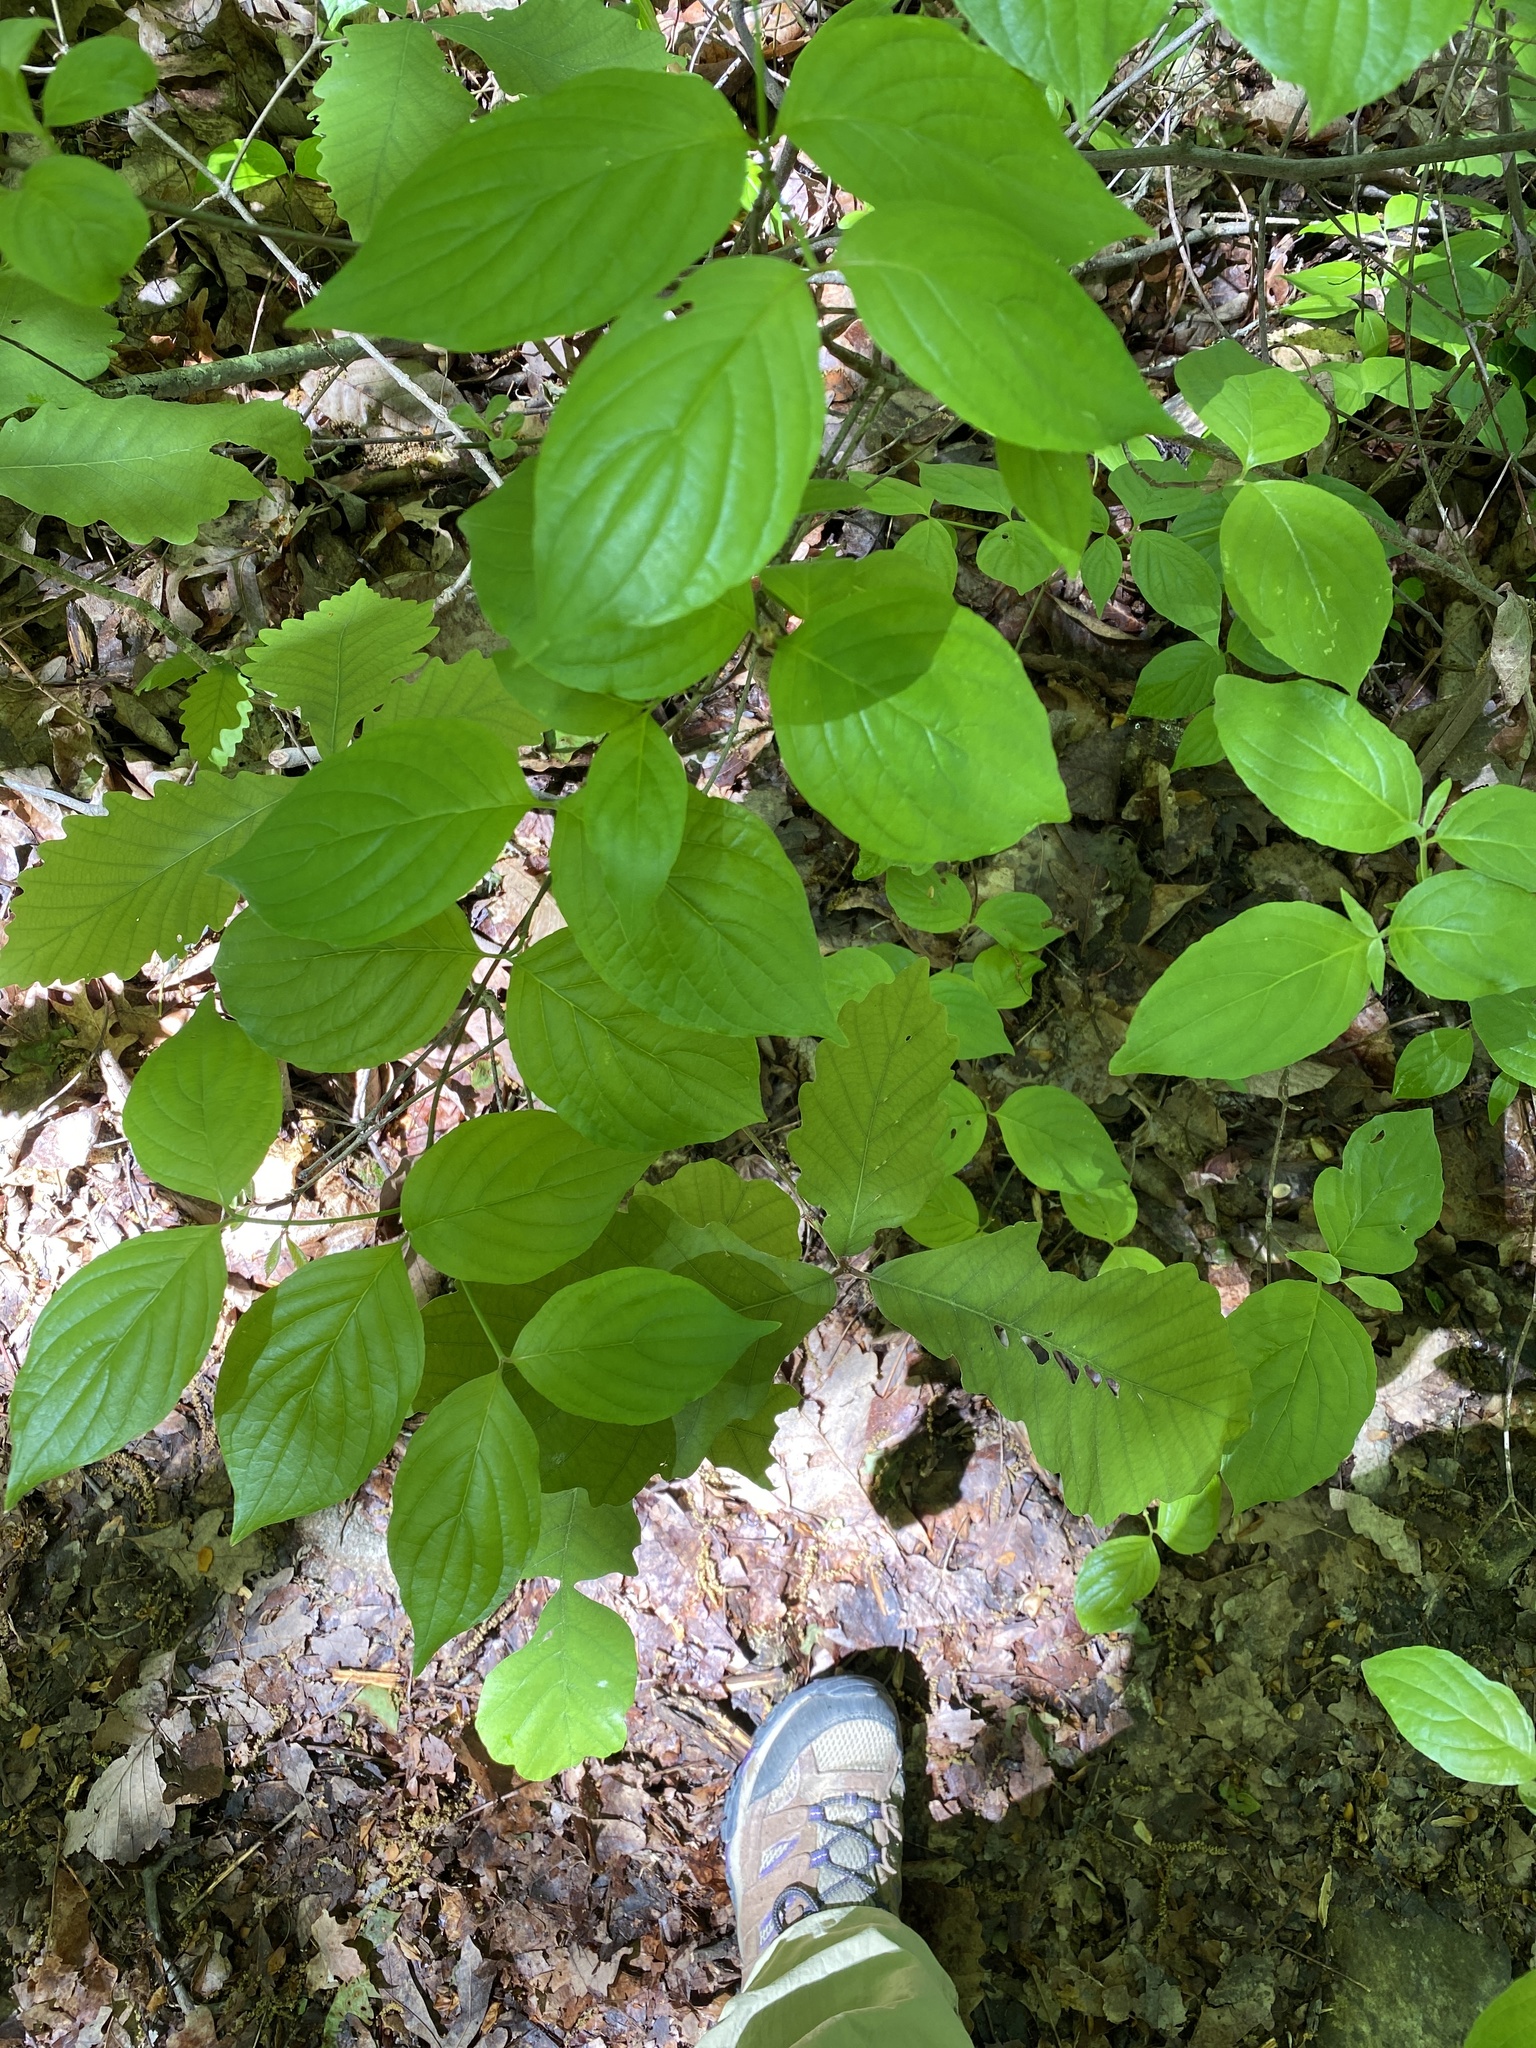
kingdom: Plantae
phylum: Tracheophyta
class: Magnoliopsida
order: Cornales
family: Cornaceae
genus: Cornus
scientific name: Cornus florida
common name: Flowering dogwood
